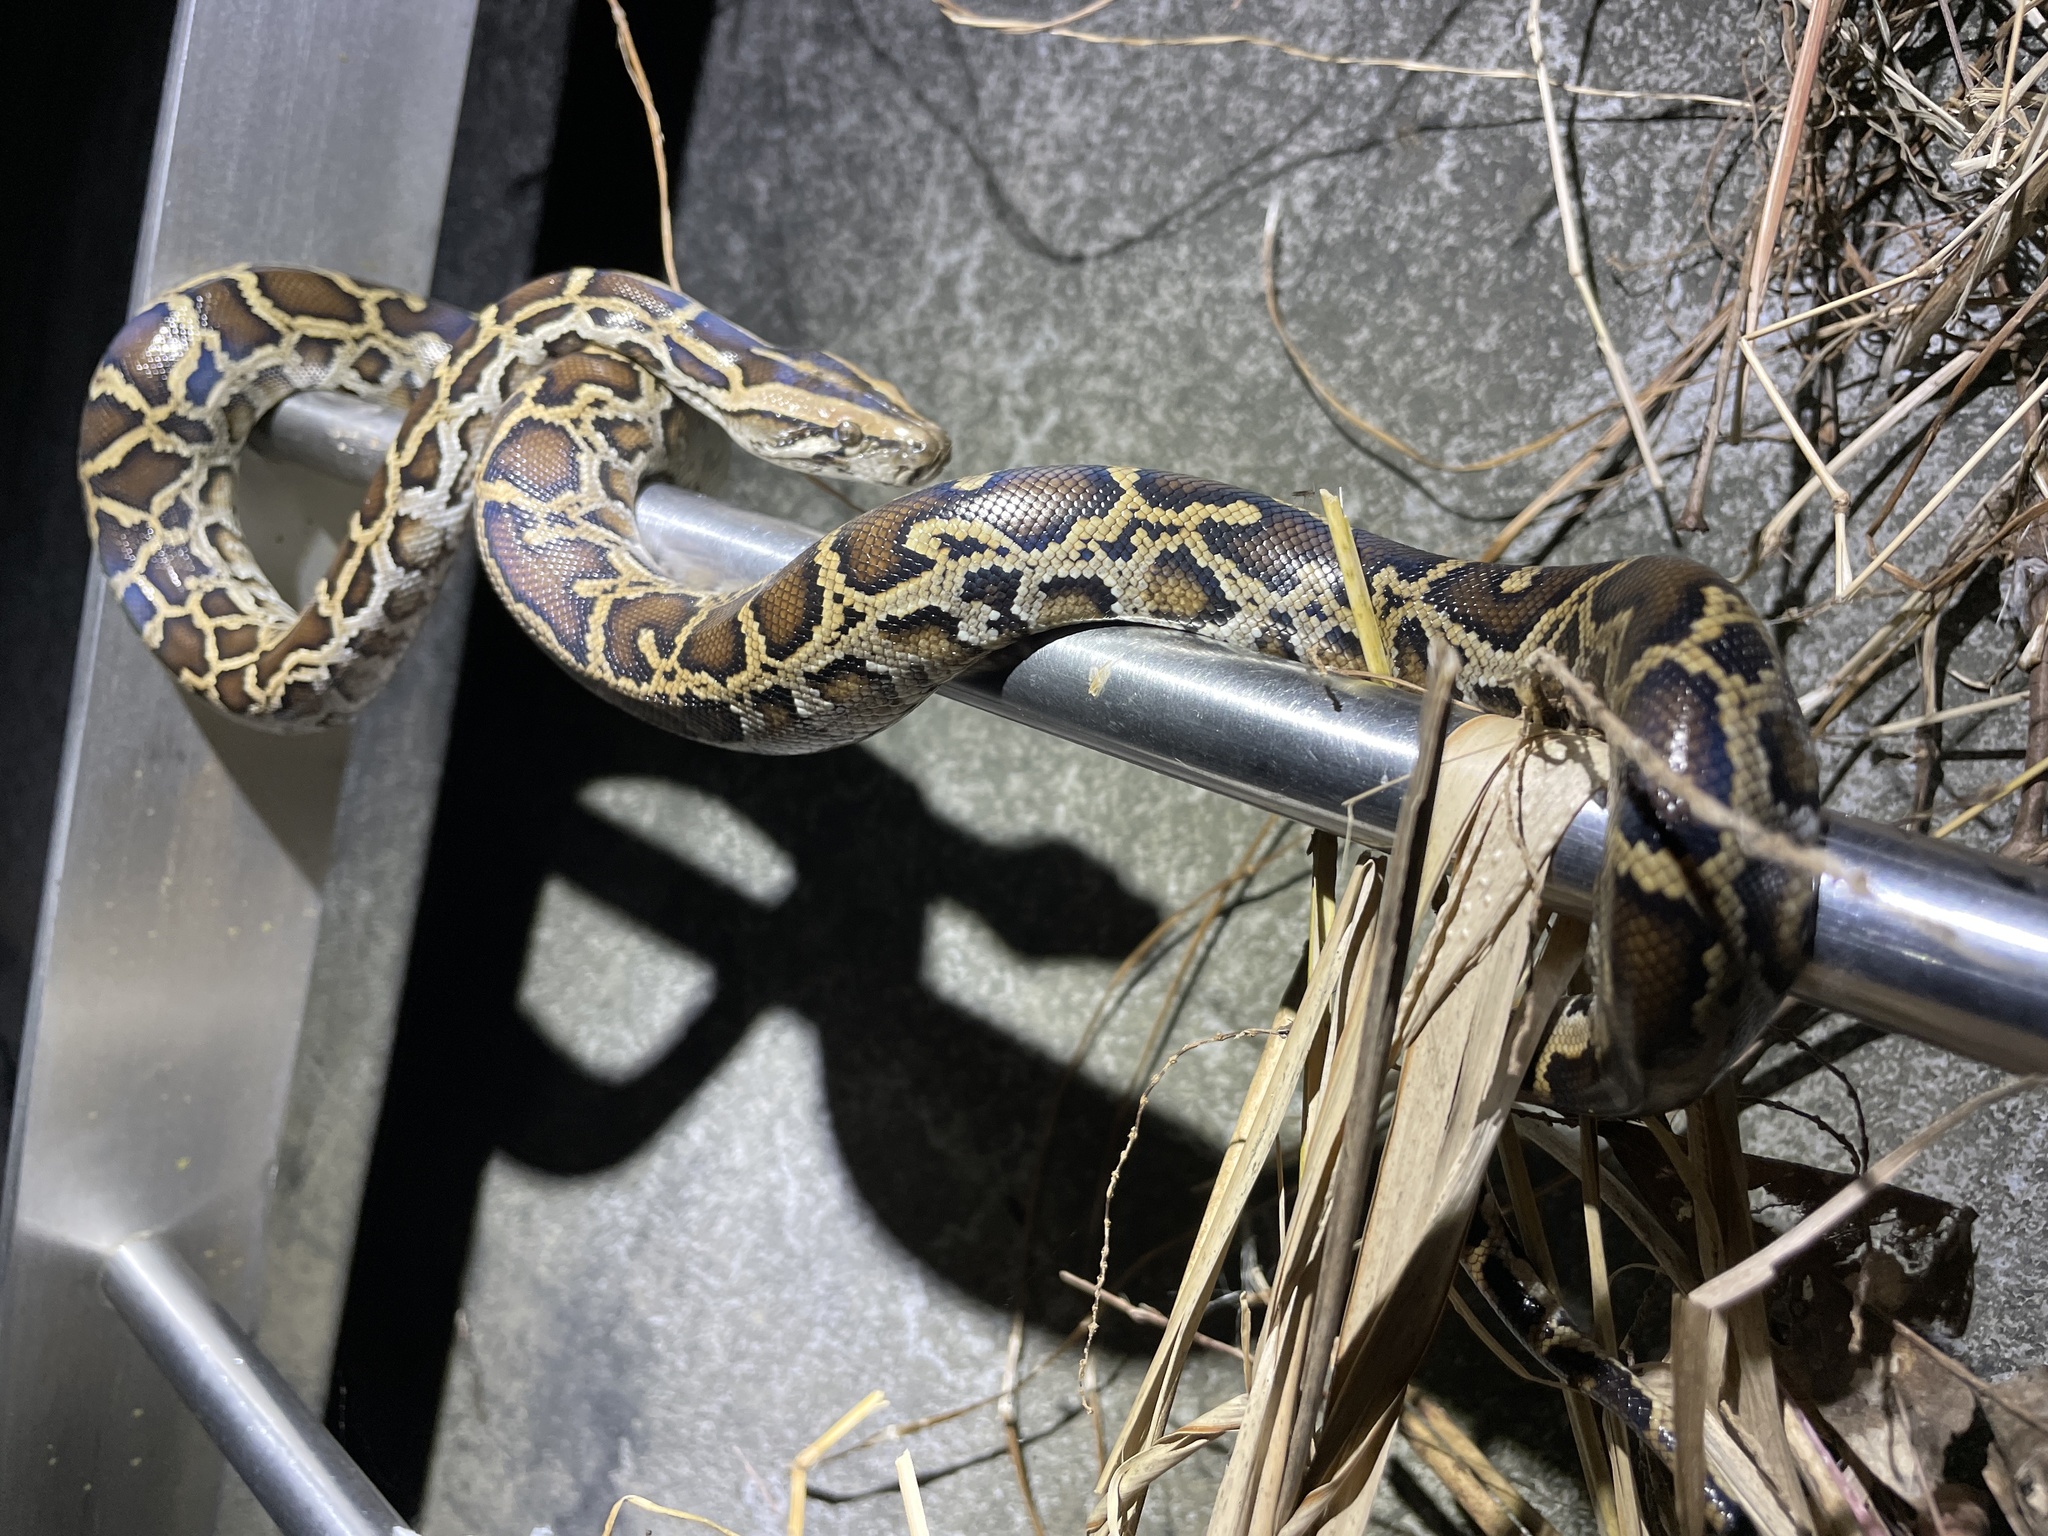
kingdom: Animalia
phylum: Chordata
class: Squamata
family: Pythonidae
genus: Python
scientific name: Python bivittatus
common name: Burmese python
